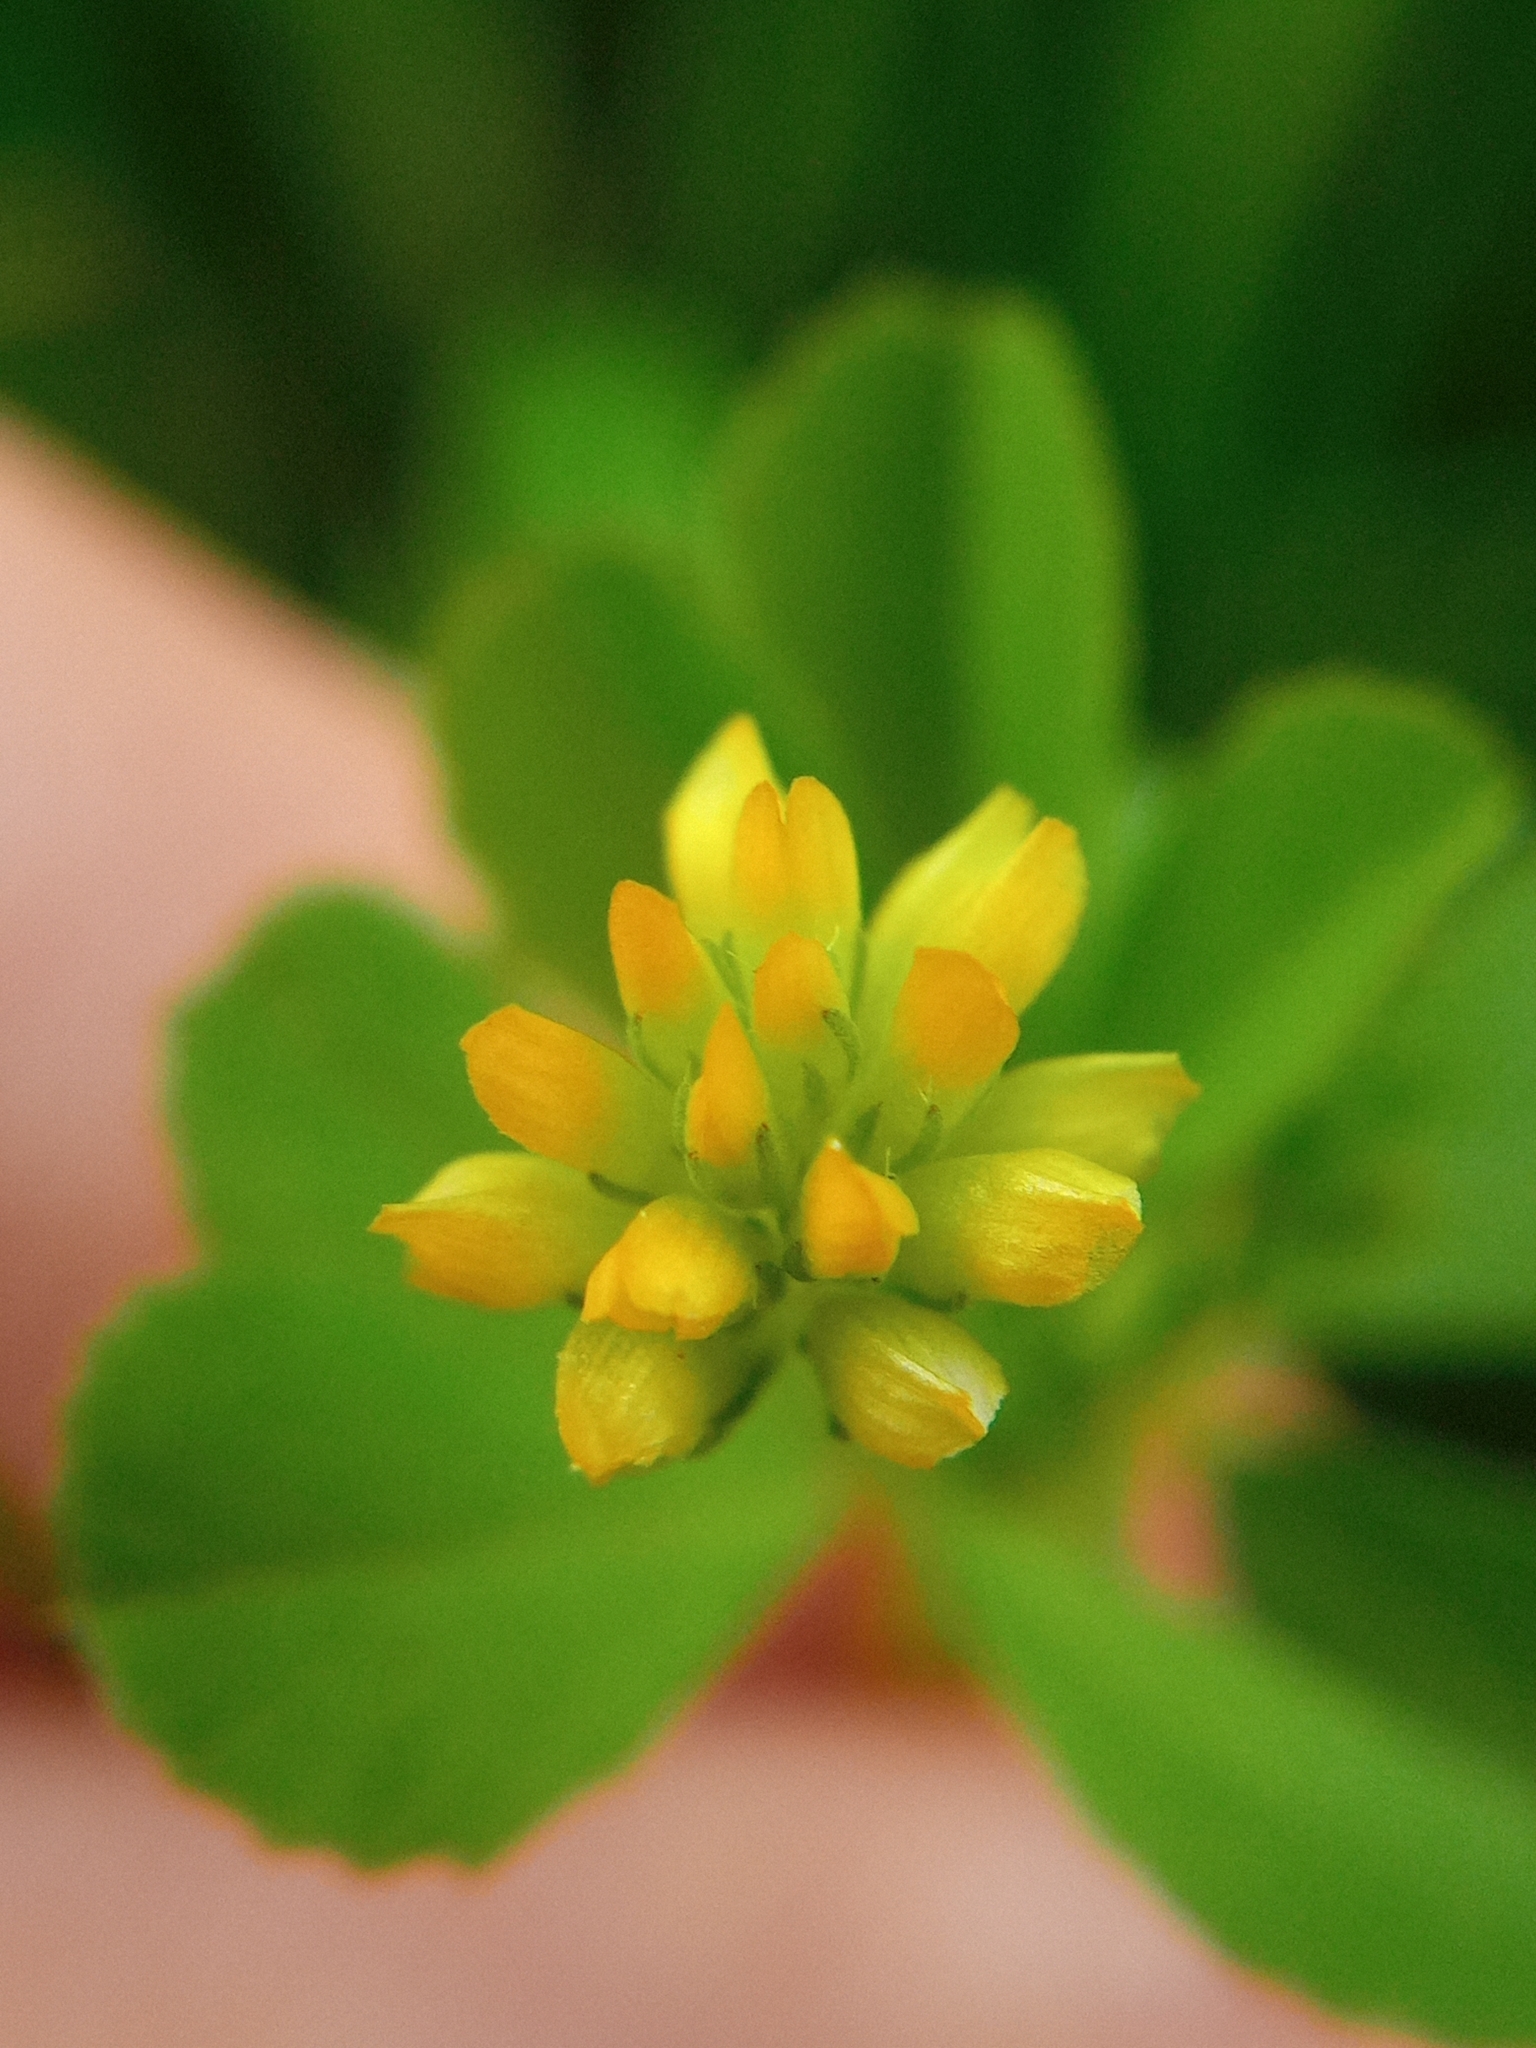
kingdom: Plantae
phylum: Tracheophyta
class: Magnoliopsida
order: Fabales
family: Fabaceae
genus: Trifolium
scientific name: Trifolium dubium
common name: Suckling clover
